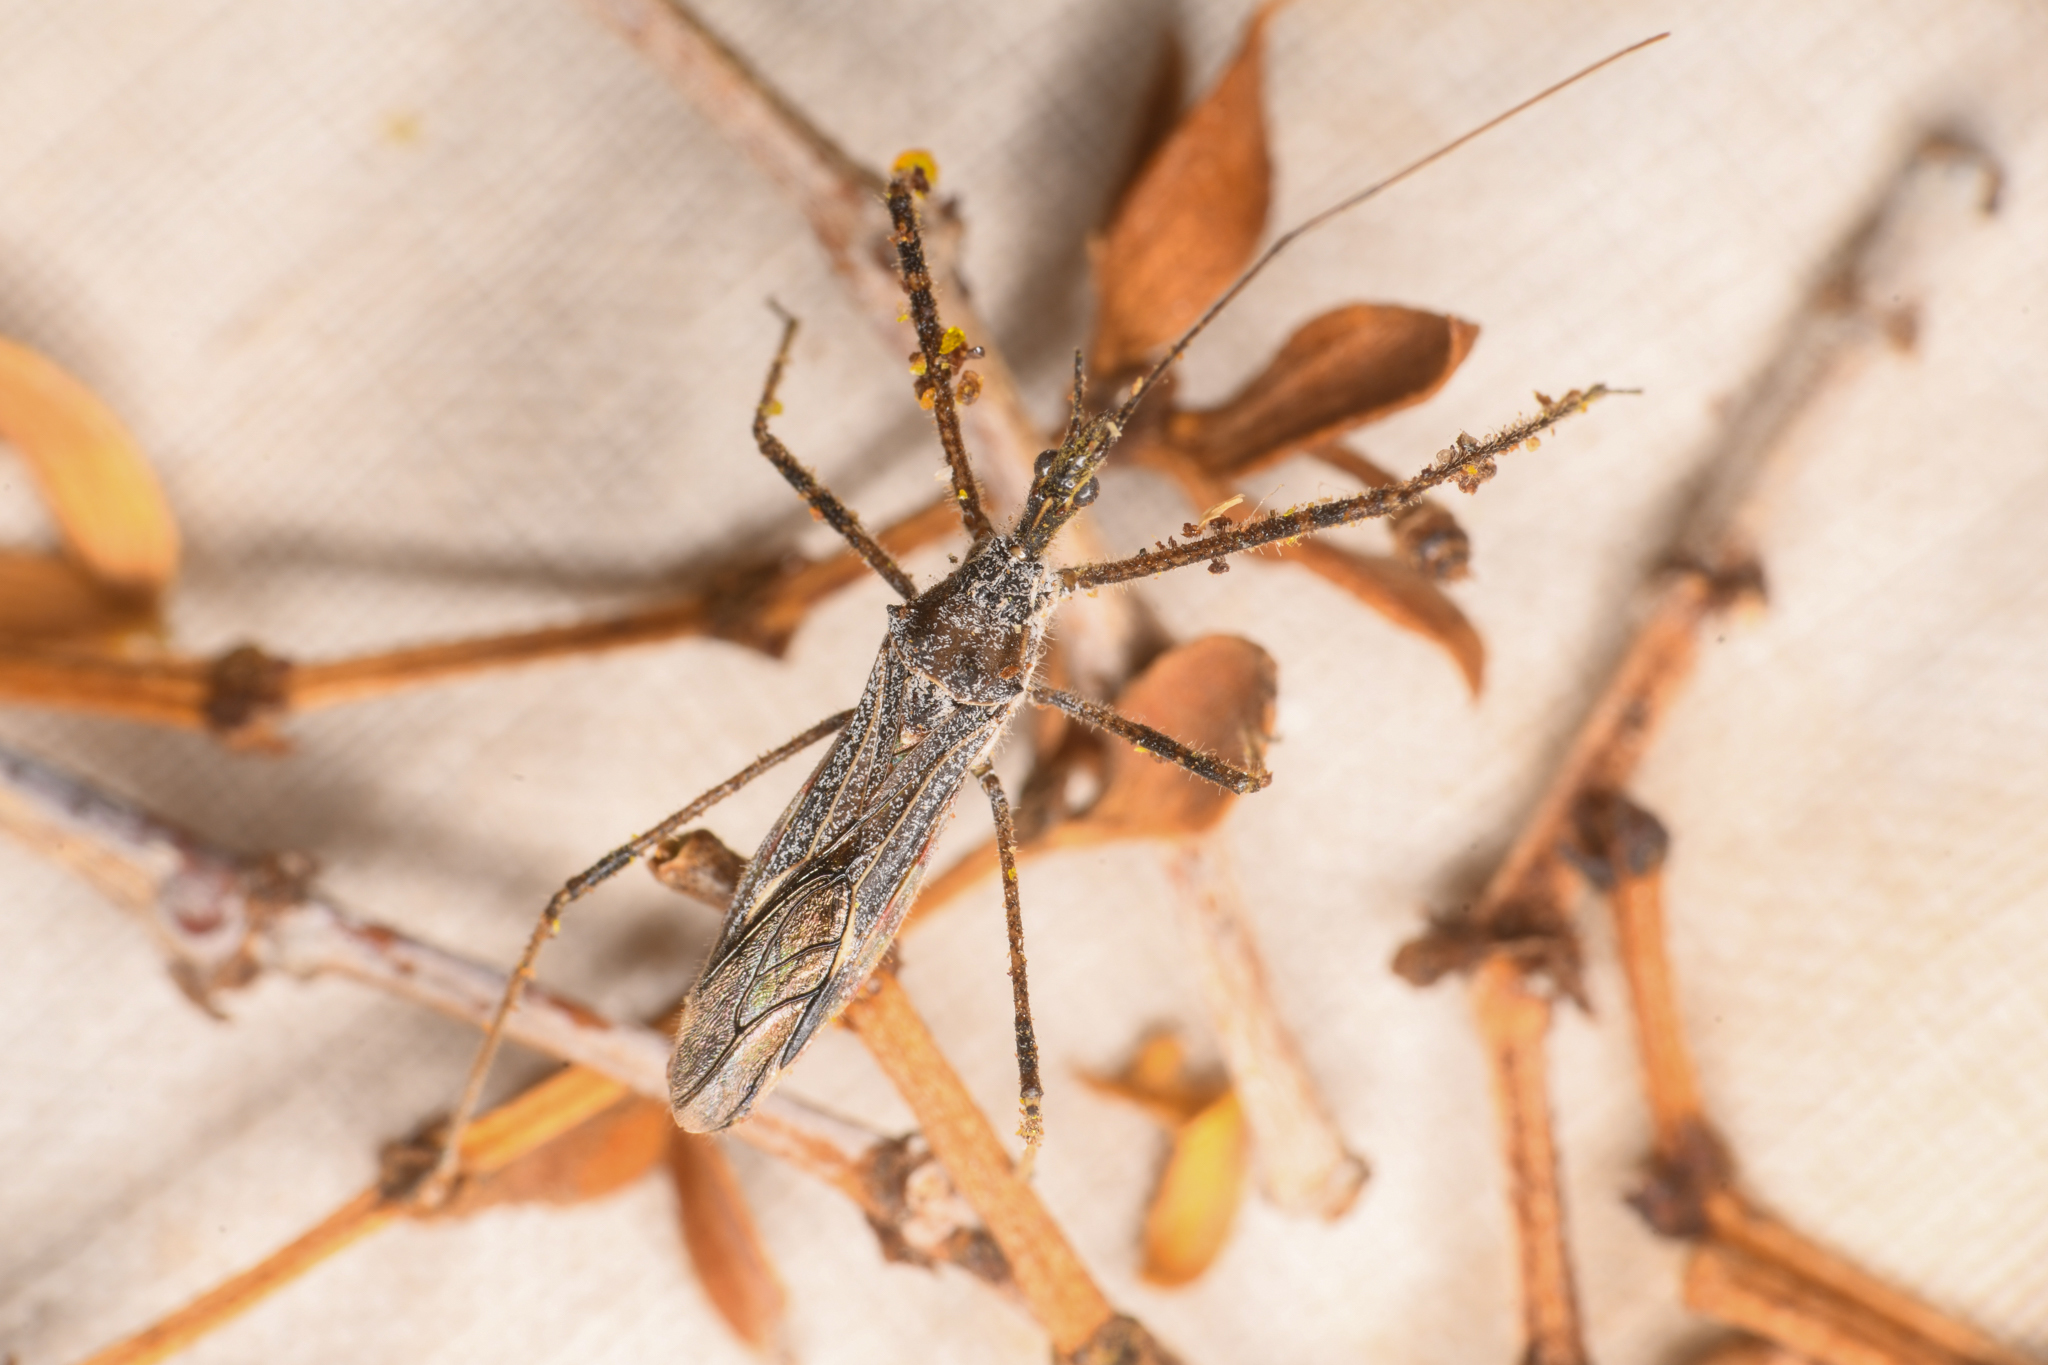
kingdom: Animalia
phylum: Arthropoda
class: Insecta
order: Hemiptera
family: Reduviidae
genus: Zelus
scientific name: Zelus tetracanthus
